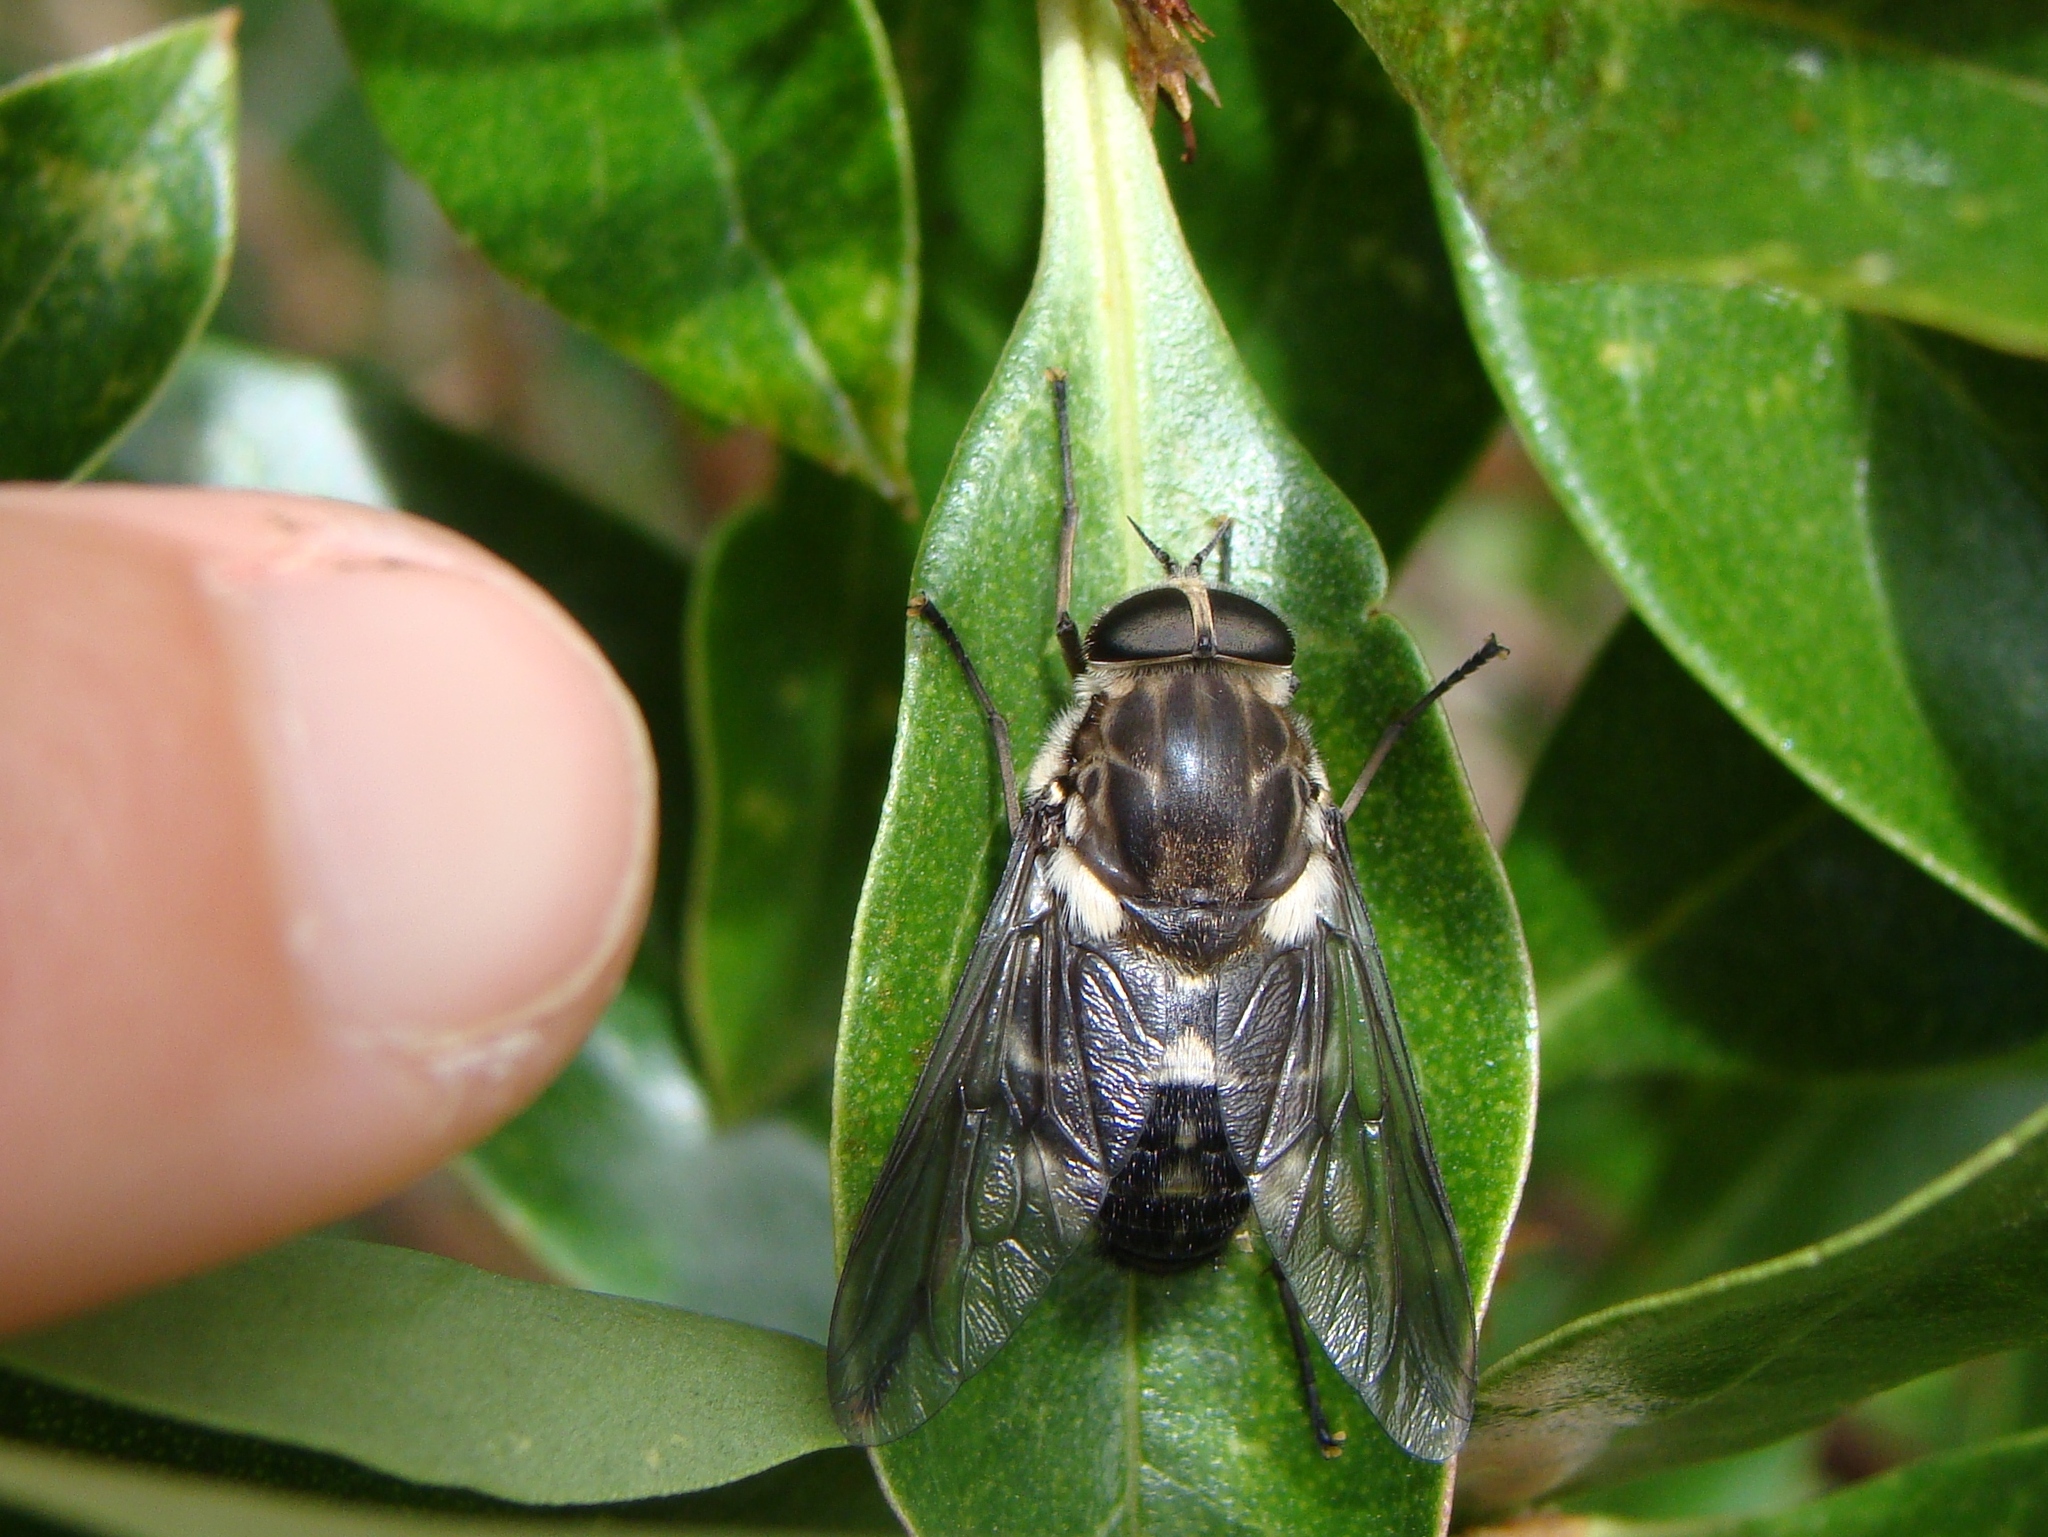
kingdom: Animalia
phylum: Arthropoda
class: Insecta
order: Diptera
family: Tabanidae
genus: Scaptia
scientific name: Scaptia
